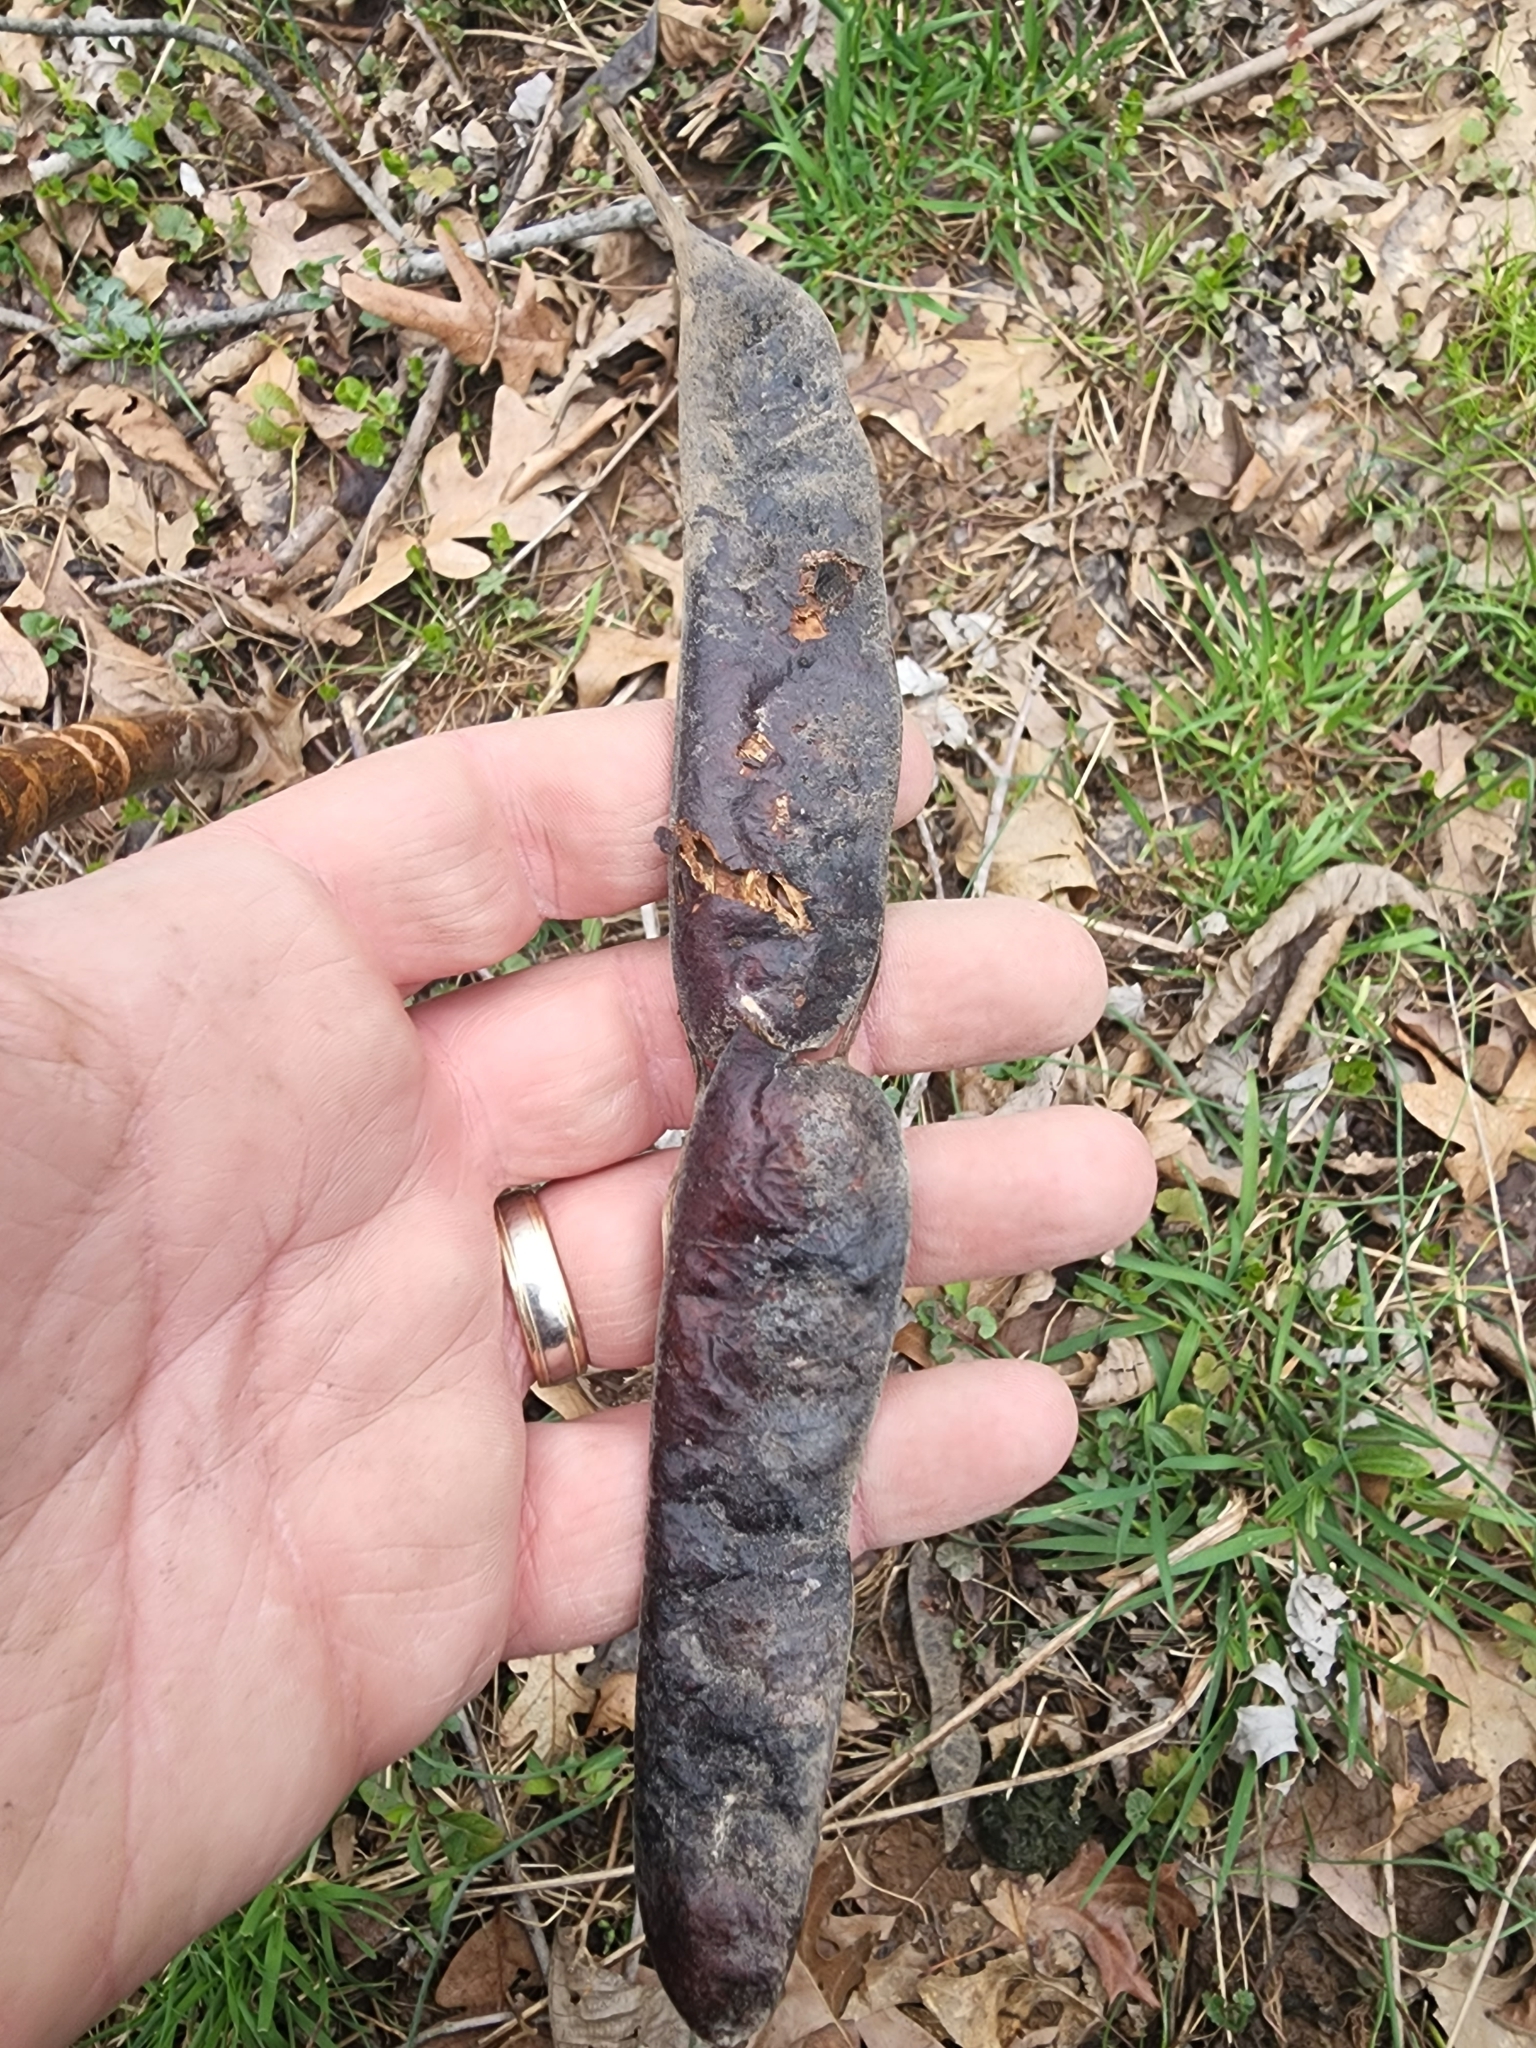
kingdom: Plantae
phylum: Tracheophyta
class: Magnoliopsida
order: Fabales
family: Fabaceae
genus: Gleditsia
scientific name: Gleditsia triacanthos
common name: Common honeylocust
